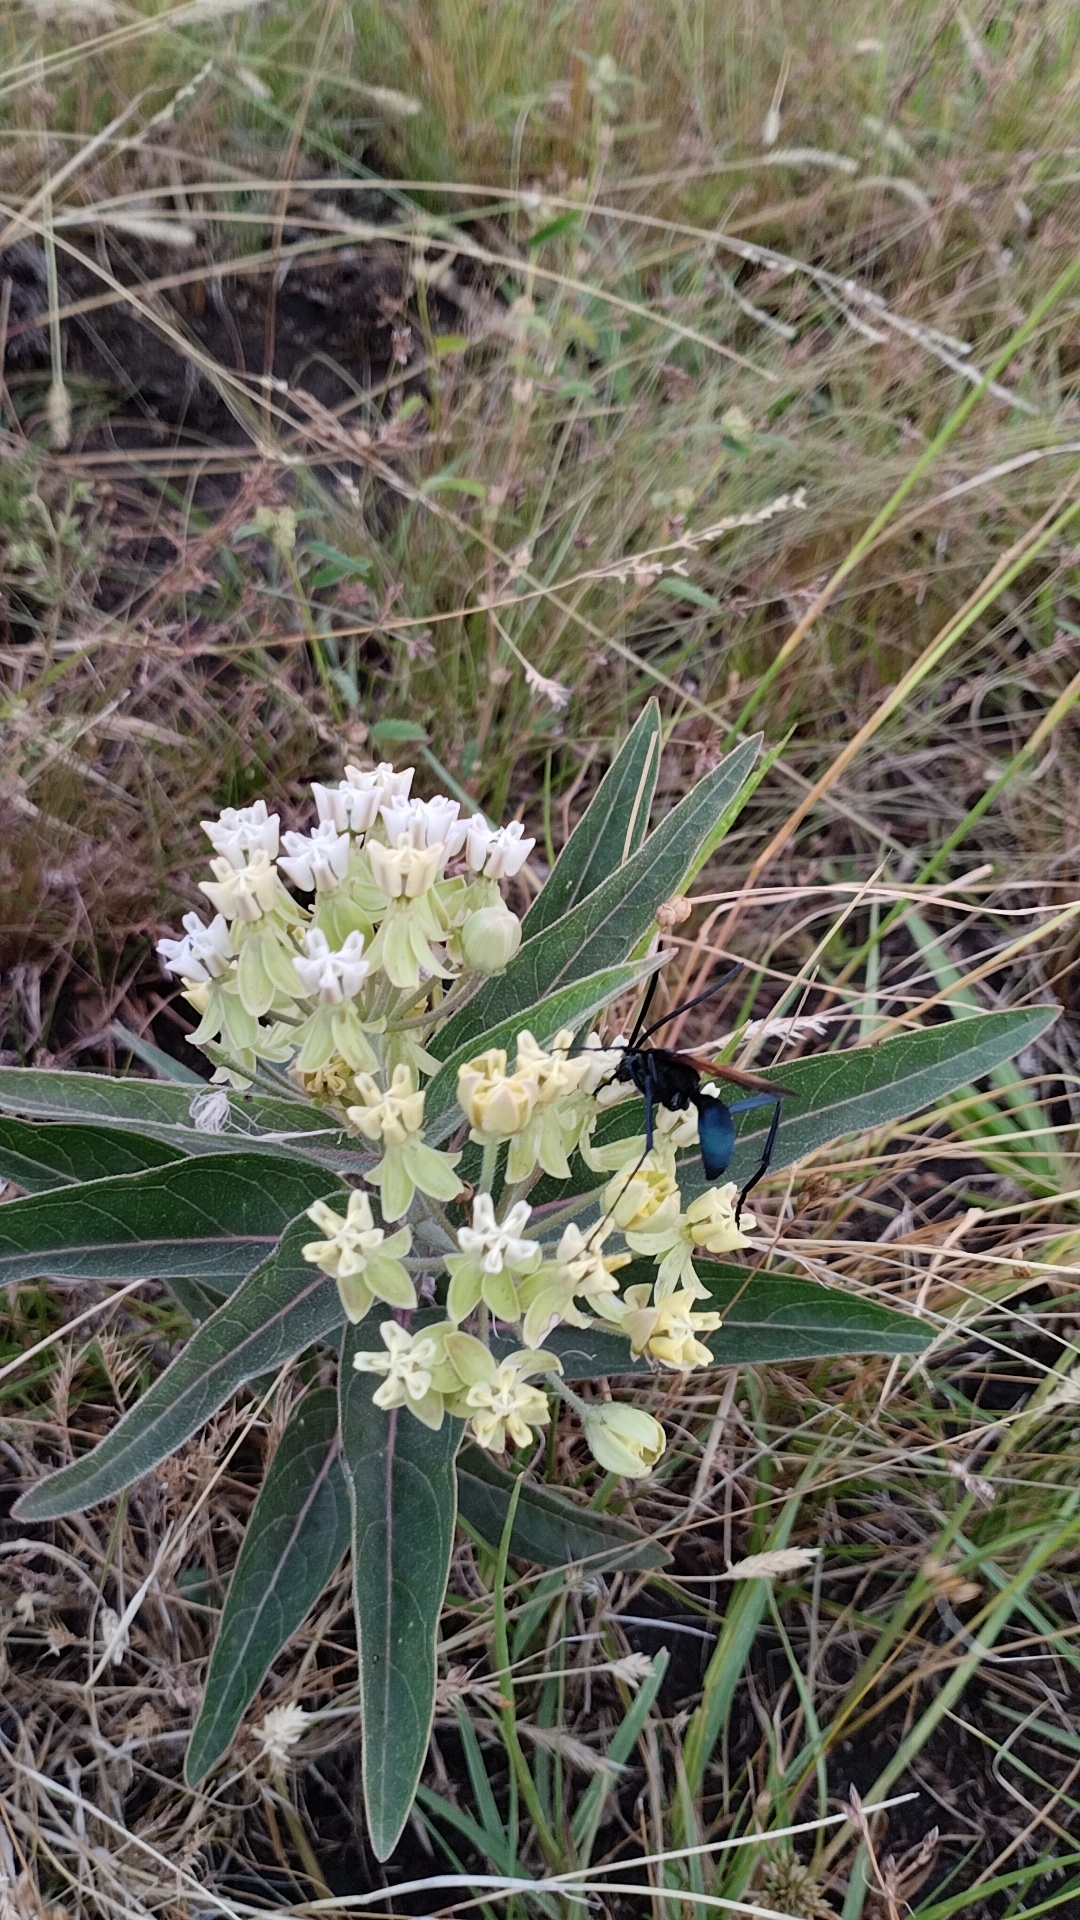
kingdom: Plantae
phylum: Tracheophyta
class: Magnoliopsida
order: Gentianales
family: Apocynaceae
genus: Asclepias
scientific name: Asclepias mellodora
